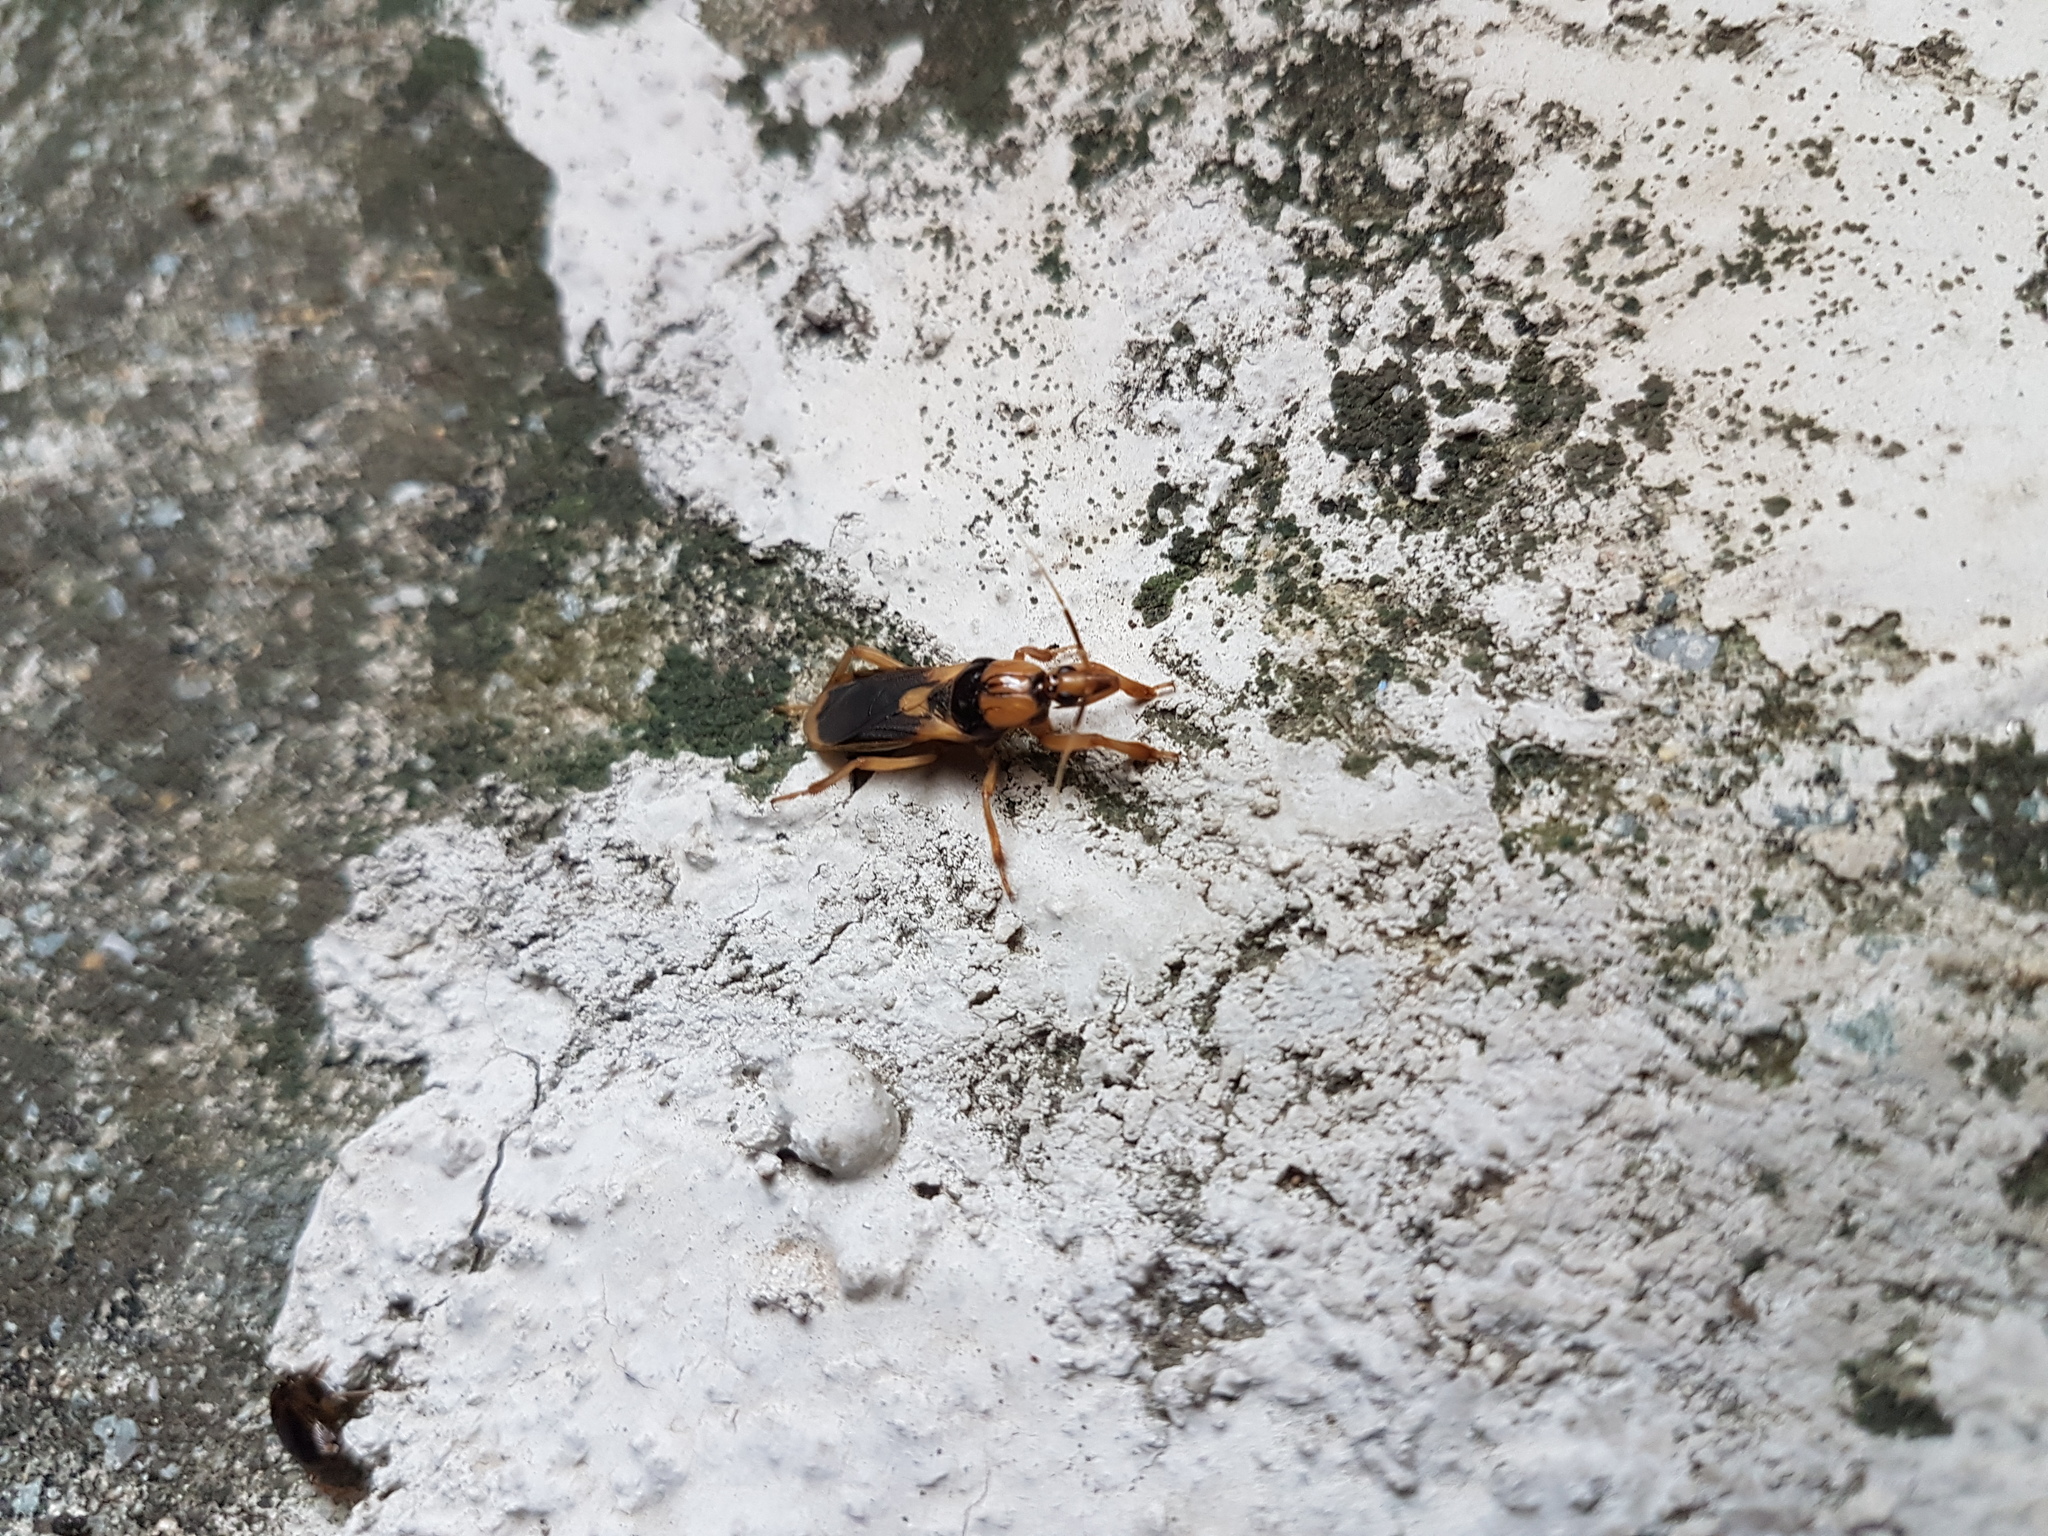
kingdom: Animalia
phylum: Arthropoda
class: Insecta
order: Hemiptera
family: Reduviidae
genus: Sirthenea
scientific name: Sirthenea flavipes
